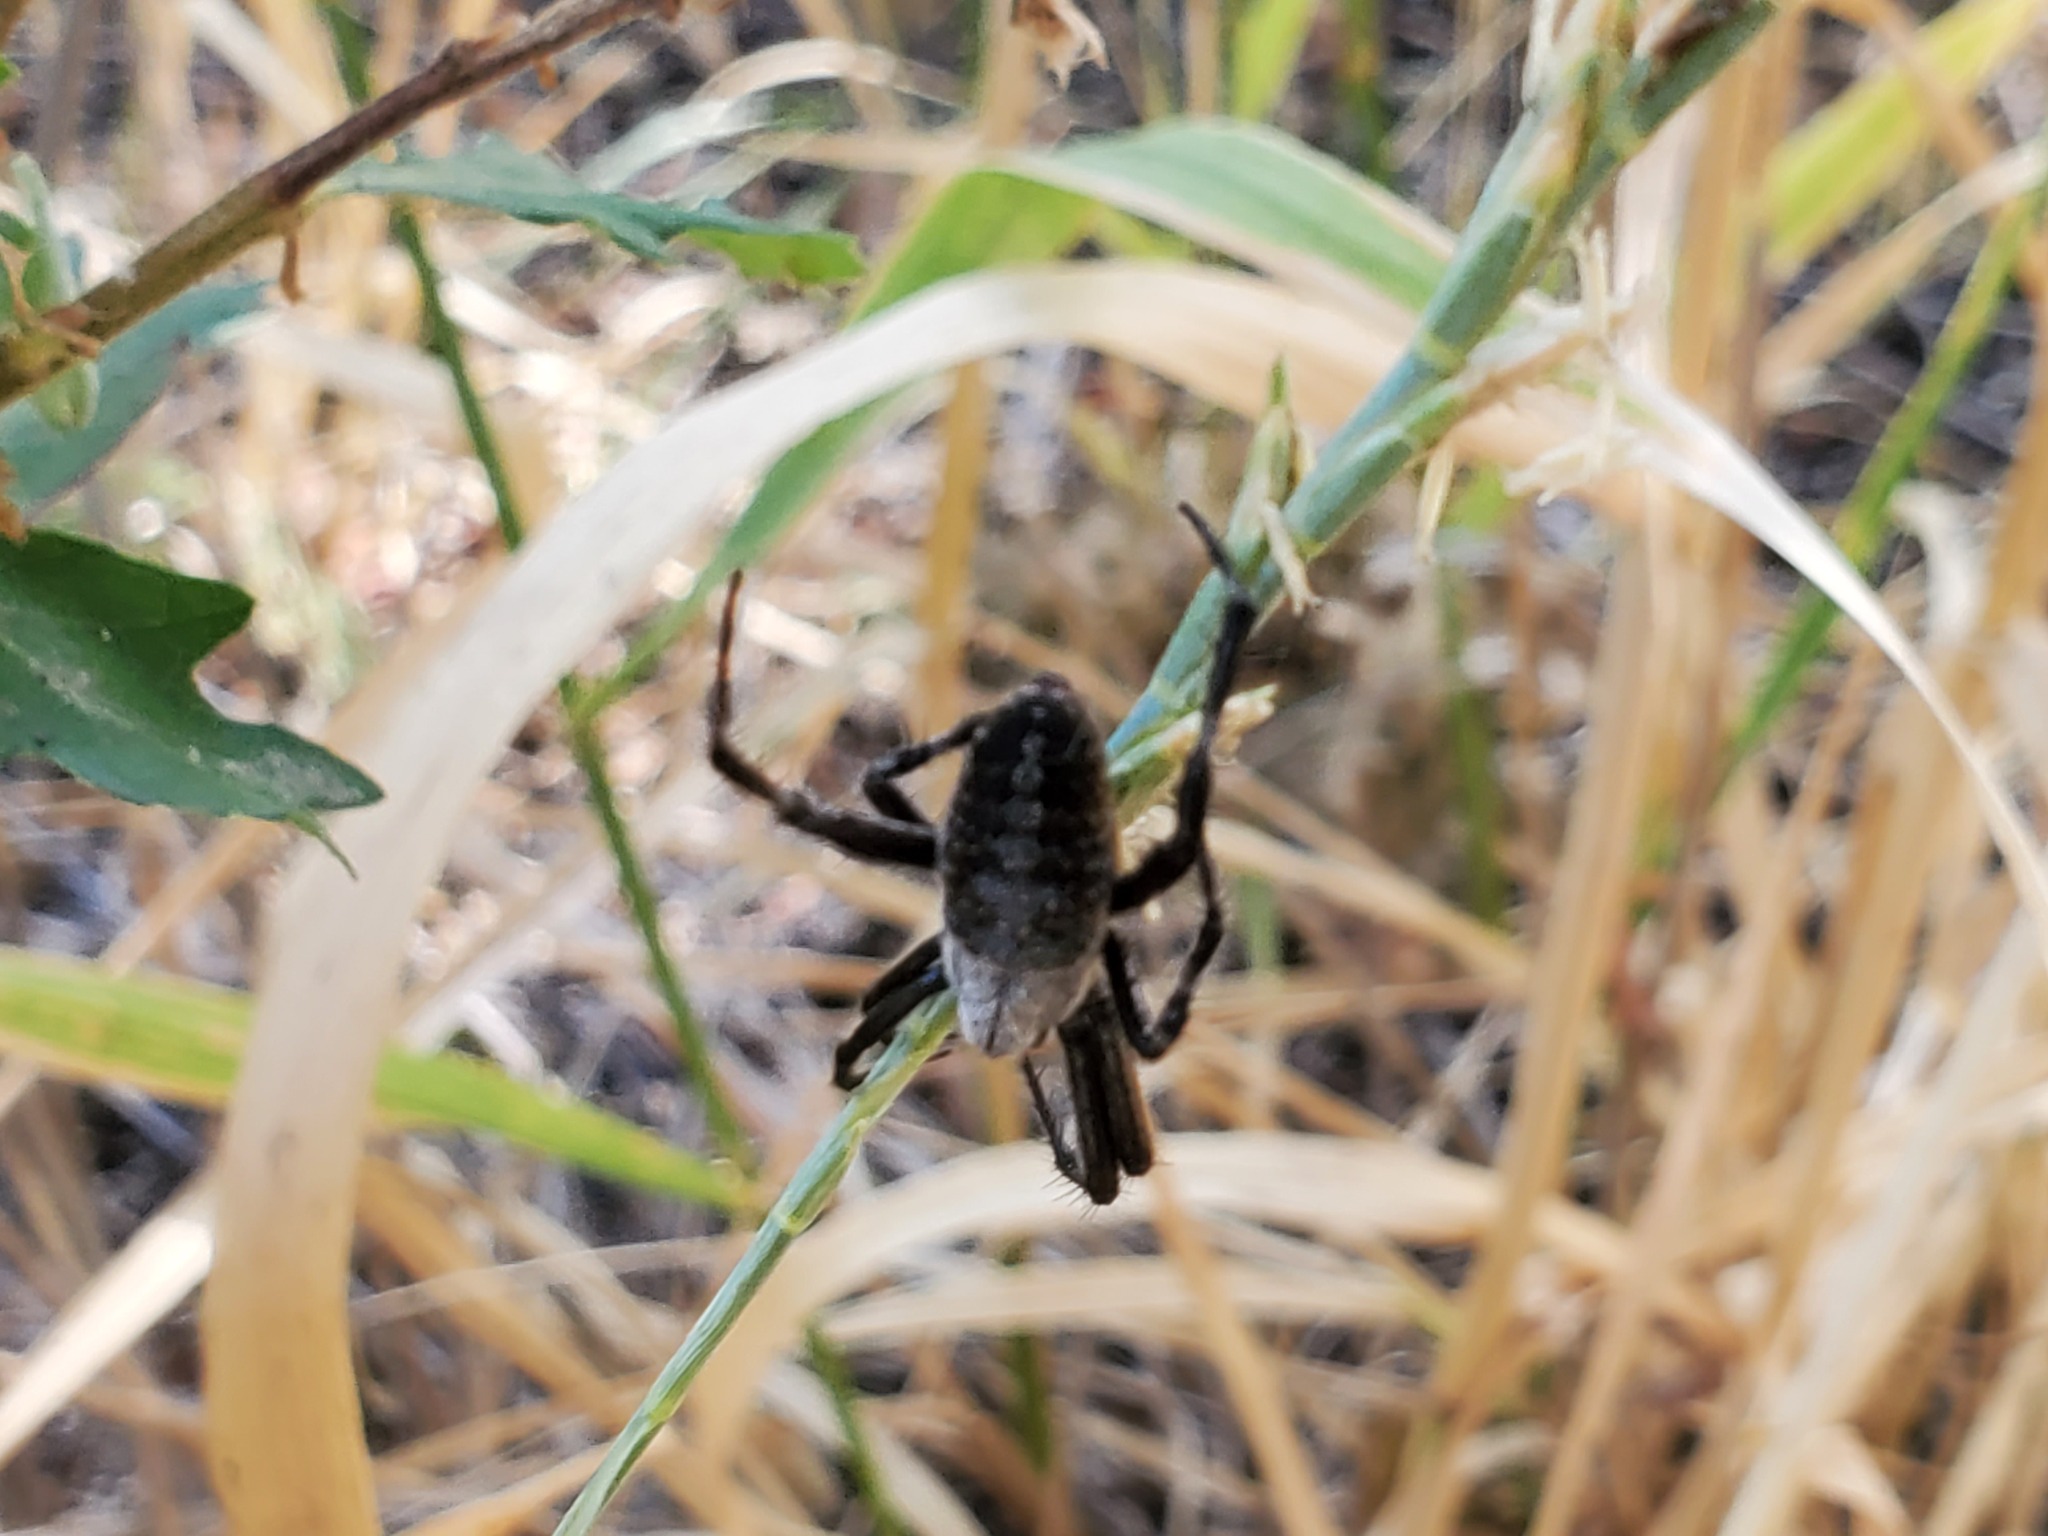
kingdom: Animalia
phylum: Arthropoda
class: Arachnida
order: Araneae
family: Araneidae
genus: Neoscona
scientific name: Neoscona oaxacensis
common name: Orb weavers
